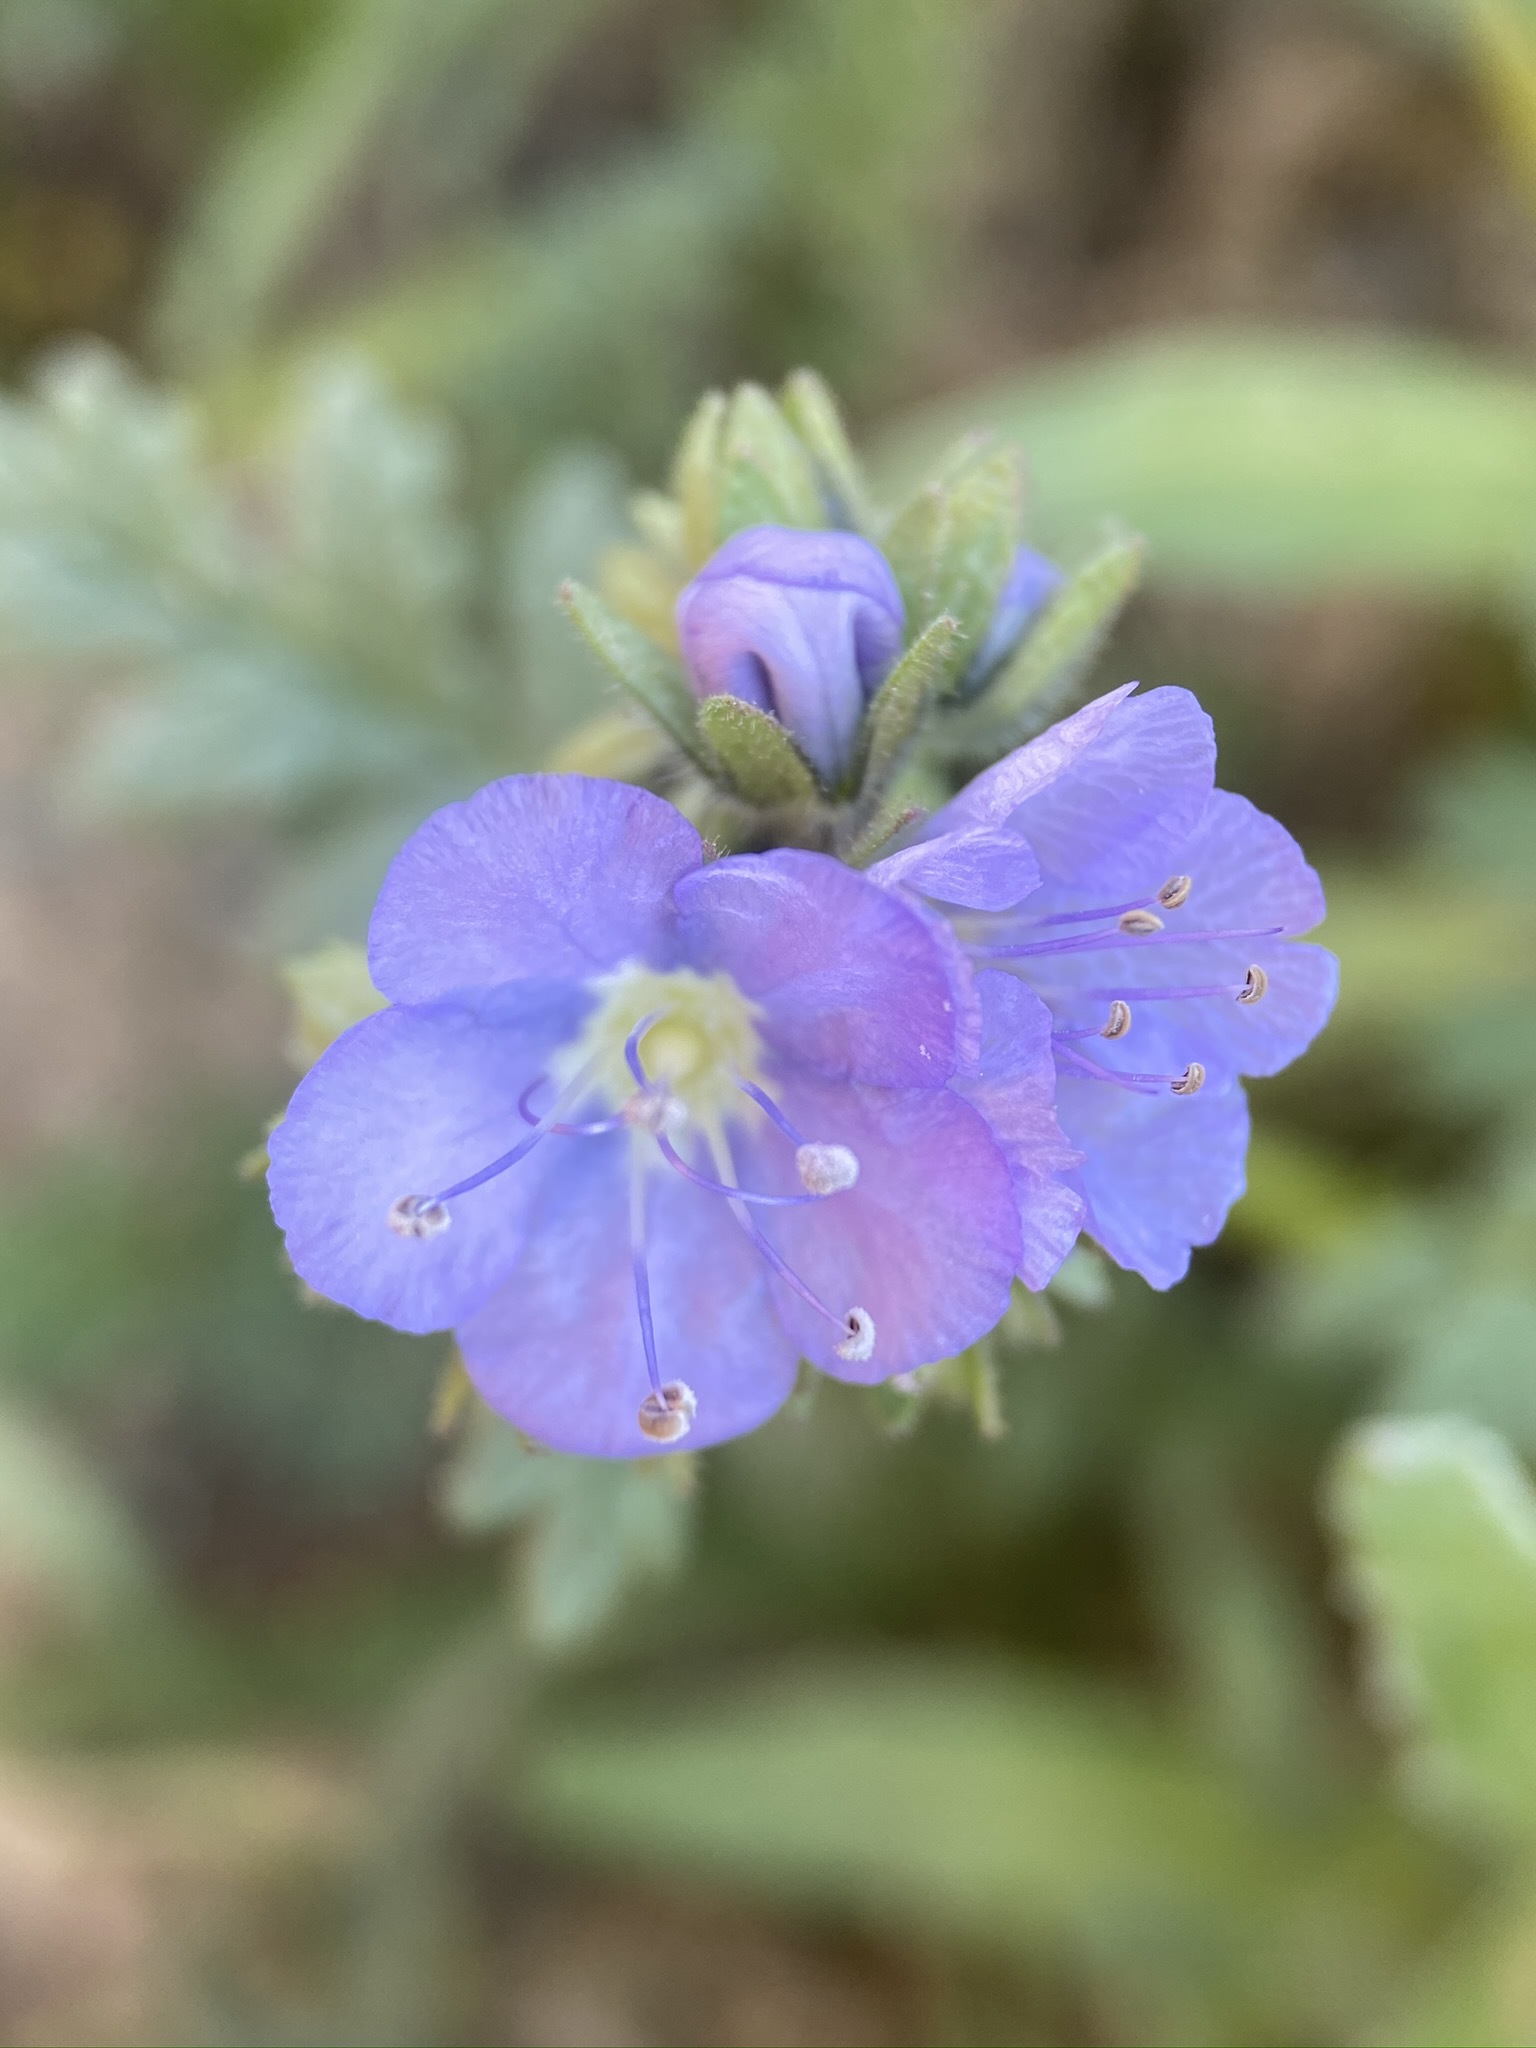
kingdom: Plantae
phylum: Tracheophyta
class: Magnoliopsida
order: Boraginales
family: Hydrophyllaceae
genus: Phacelia
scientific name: Phacelia ciliata
